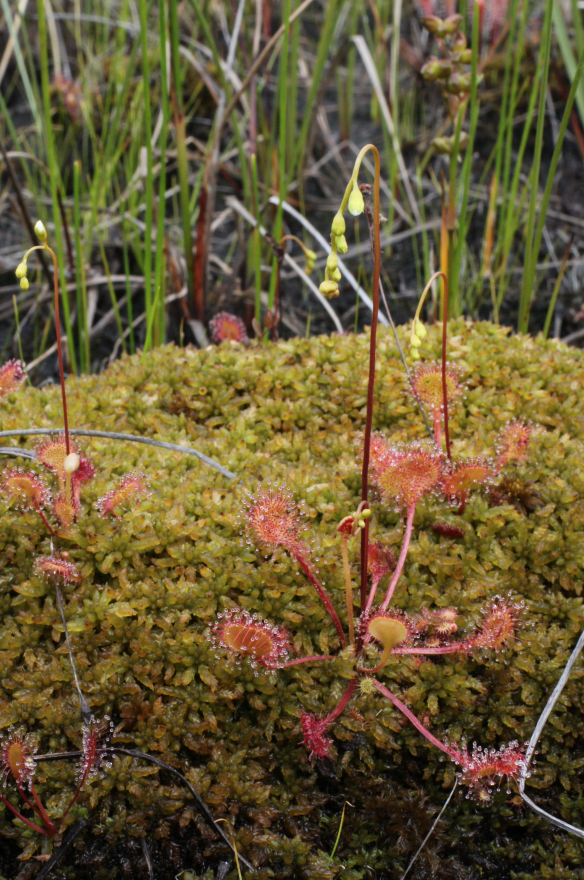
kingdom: Plantae
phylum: Tracheophyta
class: Magnoliopsida
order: Caryophyllales
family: Droseraceae
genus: Drosera
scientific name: Drosera rotundifolia
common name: Round-leaved sundew
